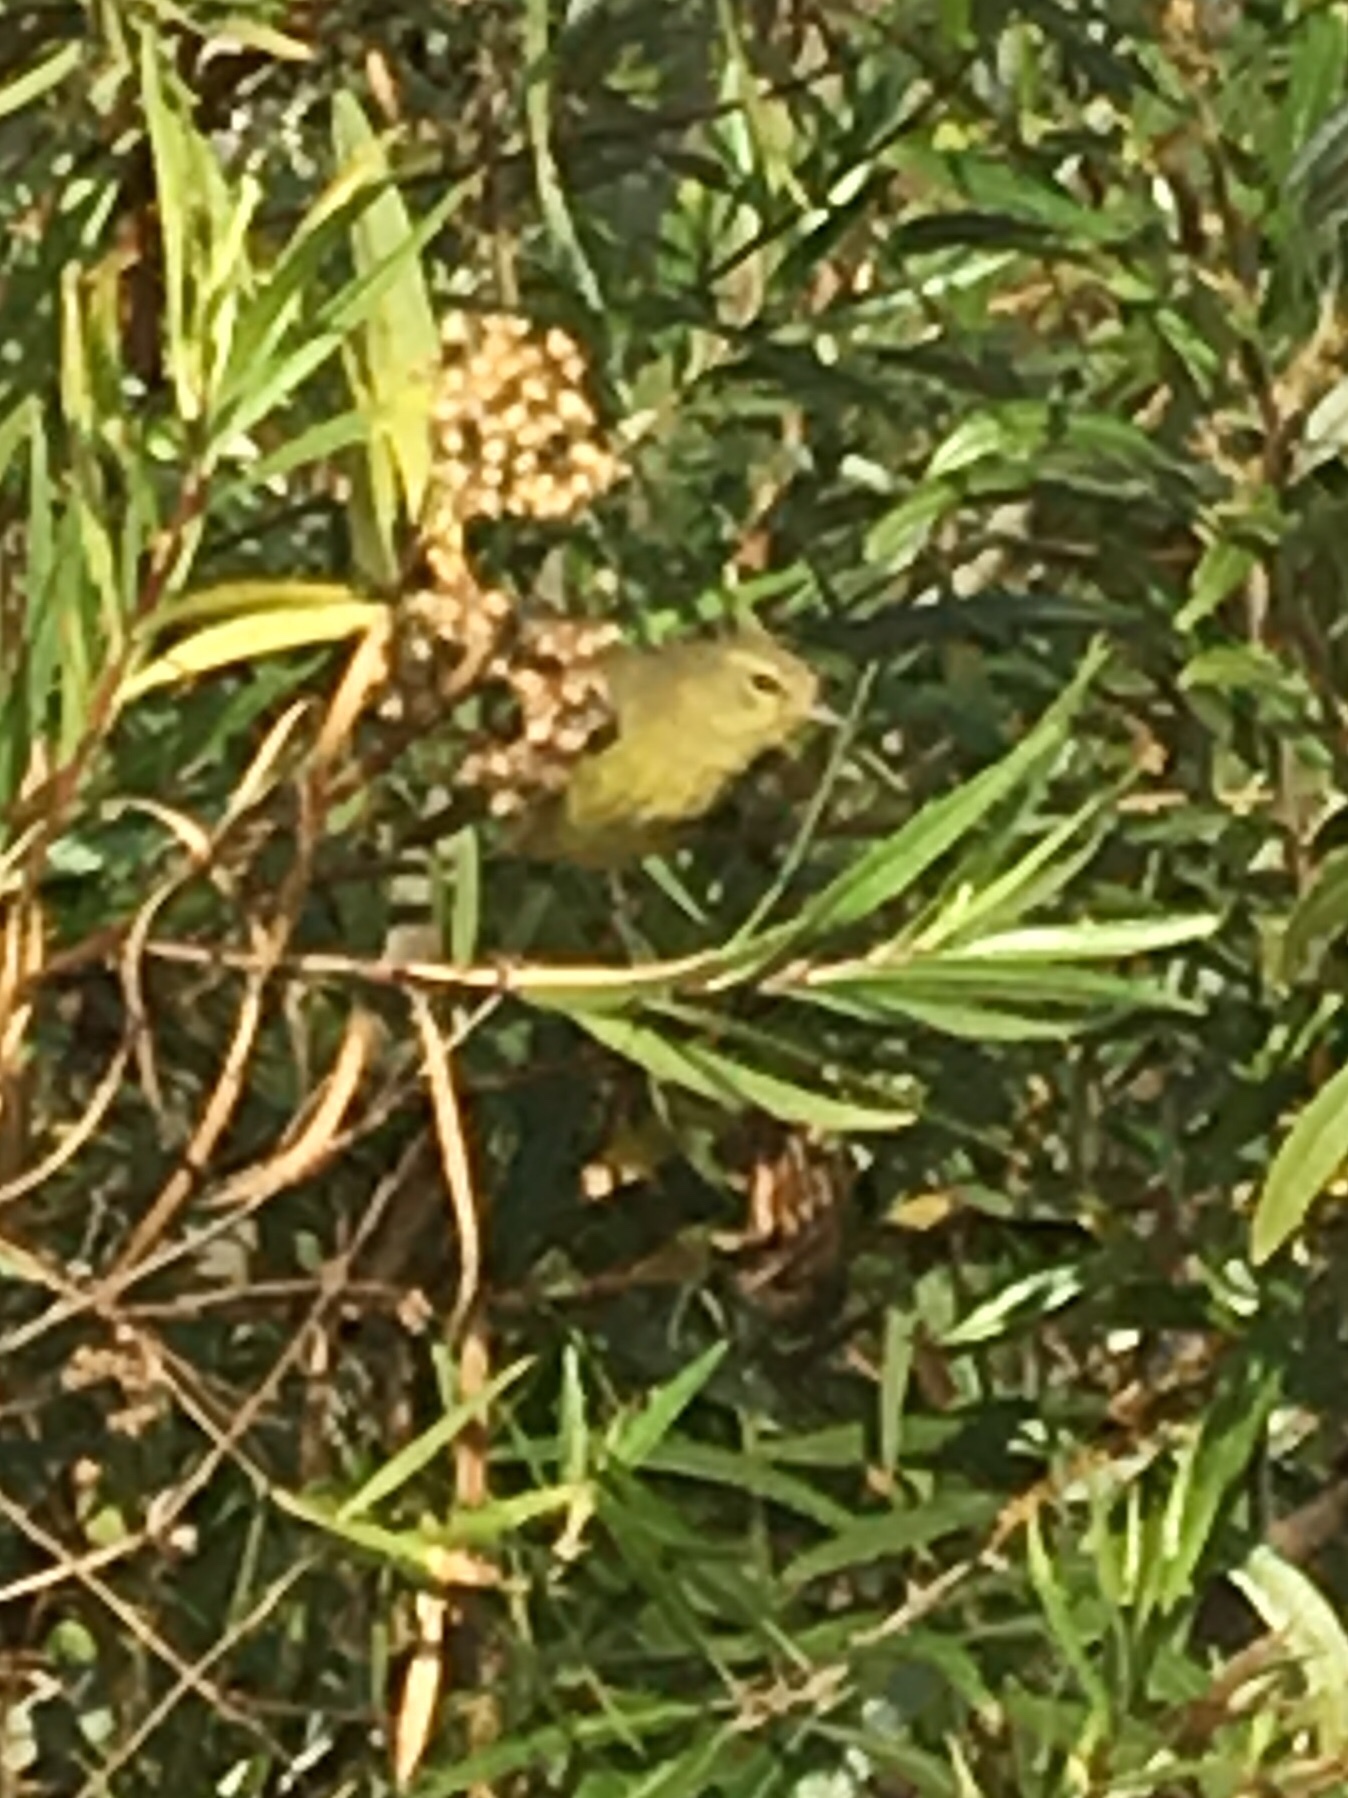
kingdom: Animalia
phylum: Chordata
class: Aves
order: Passeriformes
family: Parulidae
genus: Leiothlypis
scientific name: Leiothlypis celata
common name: Orange-crowned warbler
